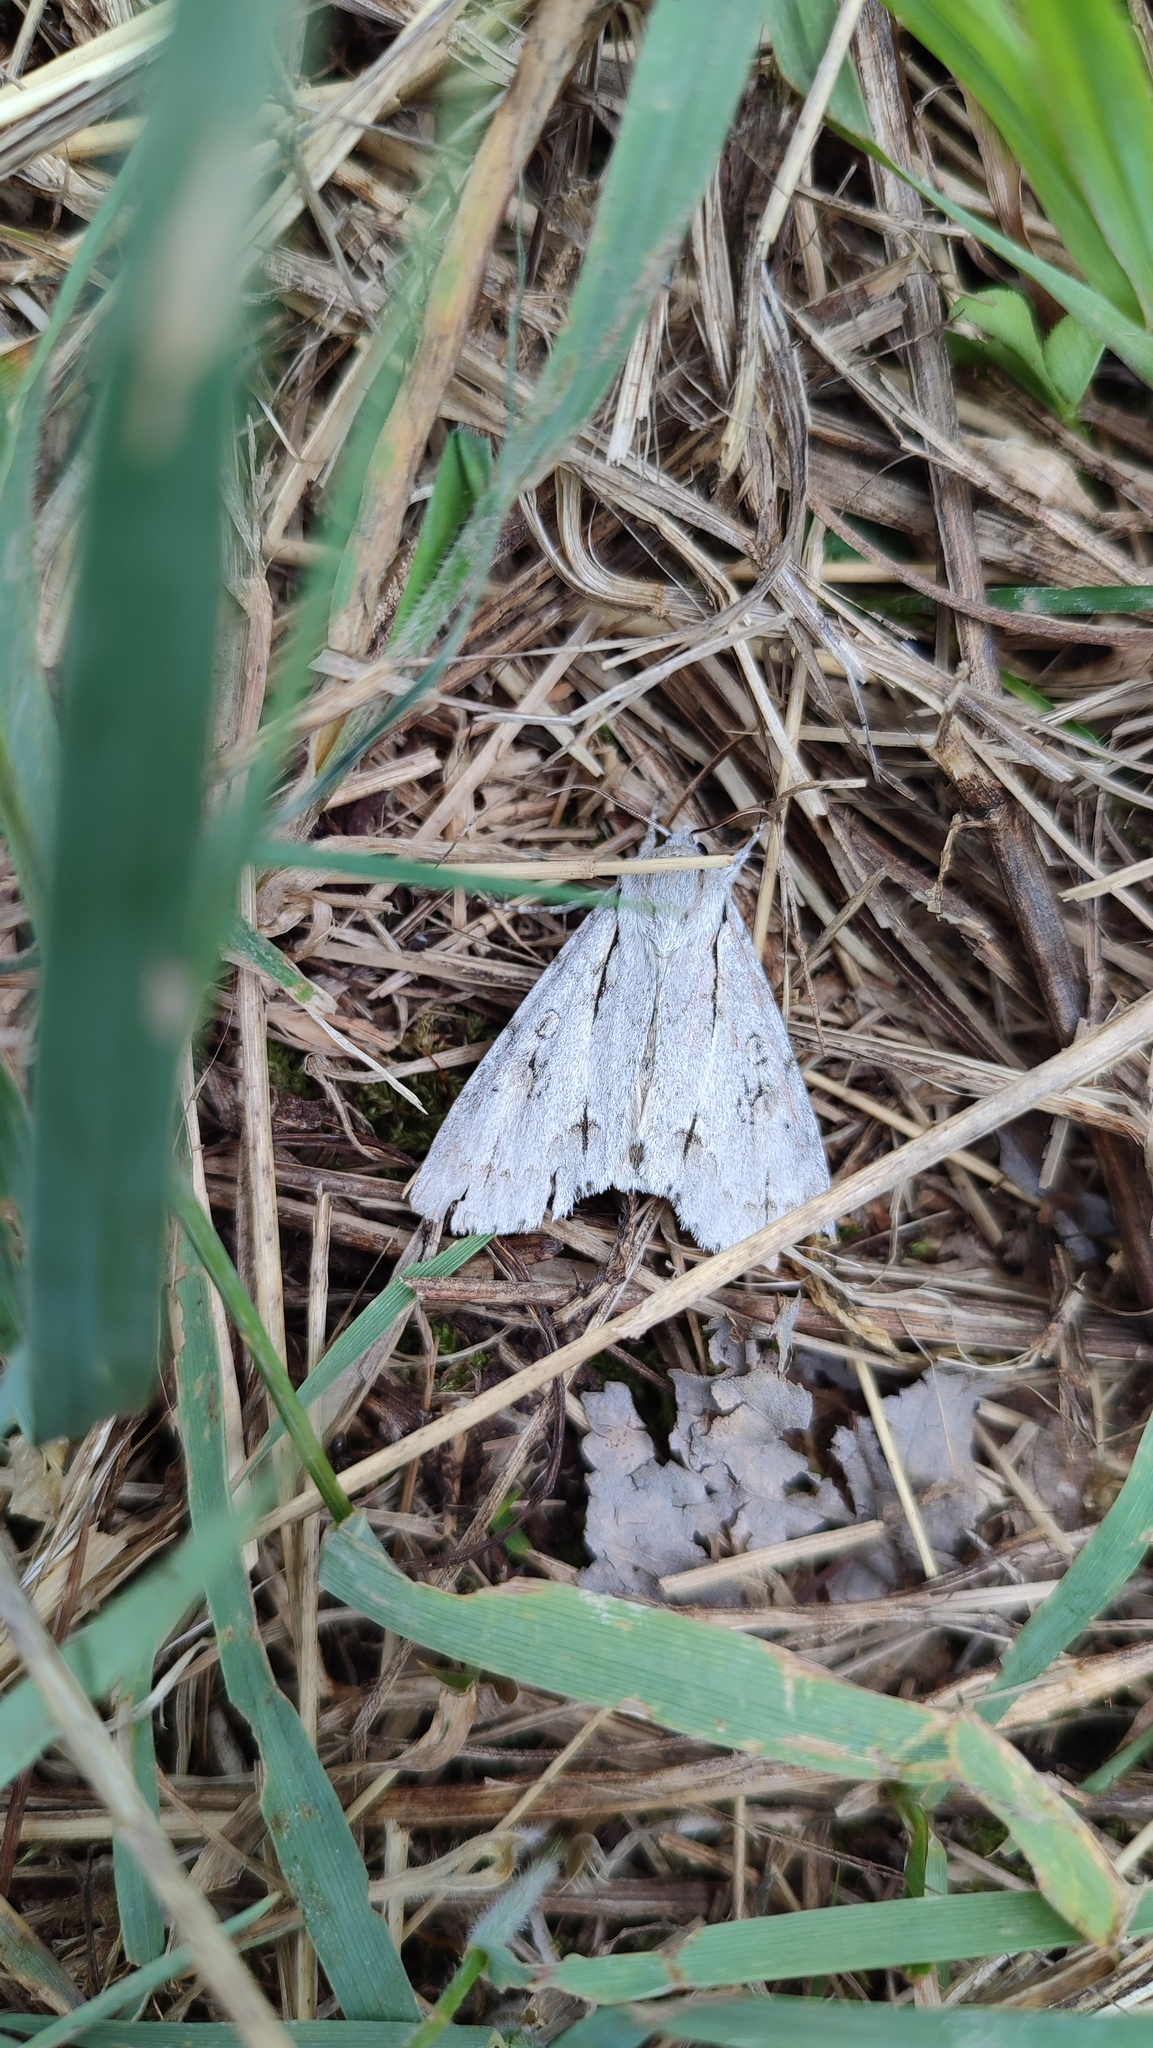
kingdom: Animalia
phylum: Arthropoda
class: Insecta
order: Lepidoptera
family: Noctuidae
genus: Acronicta
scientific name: Acronicta major
